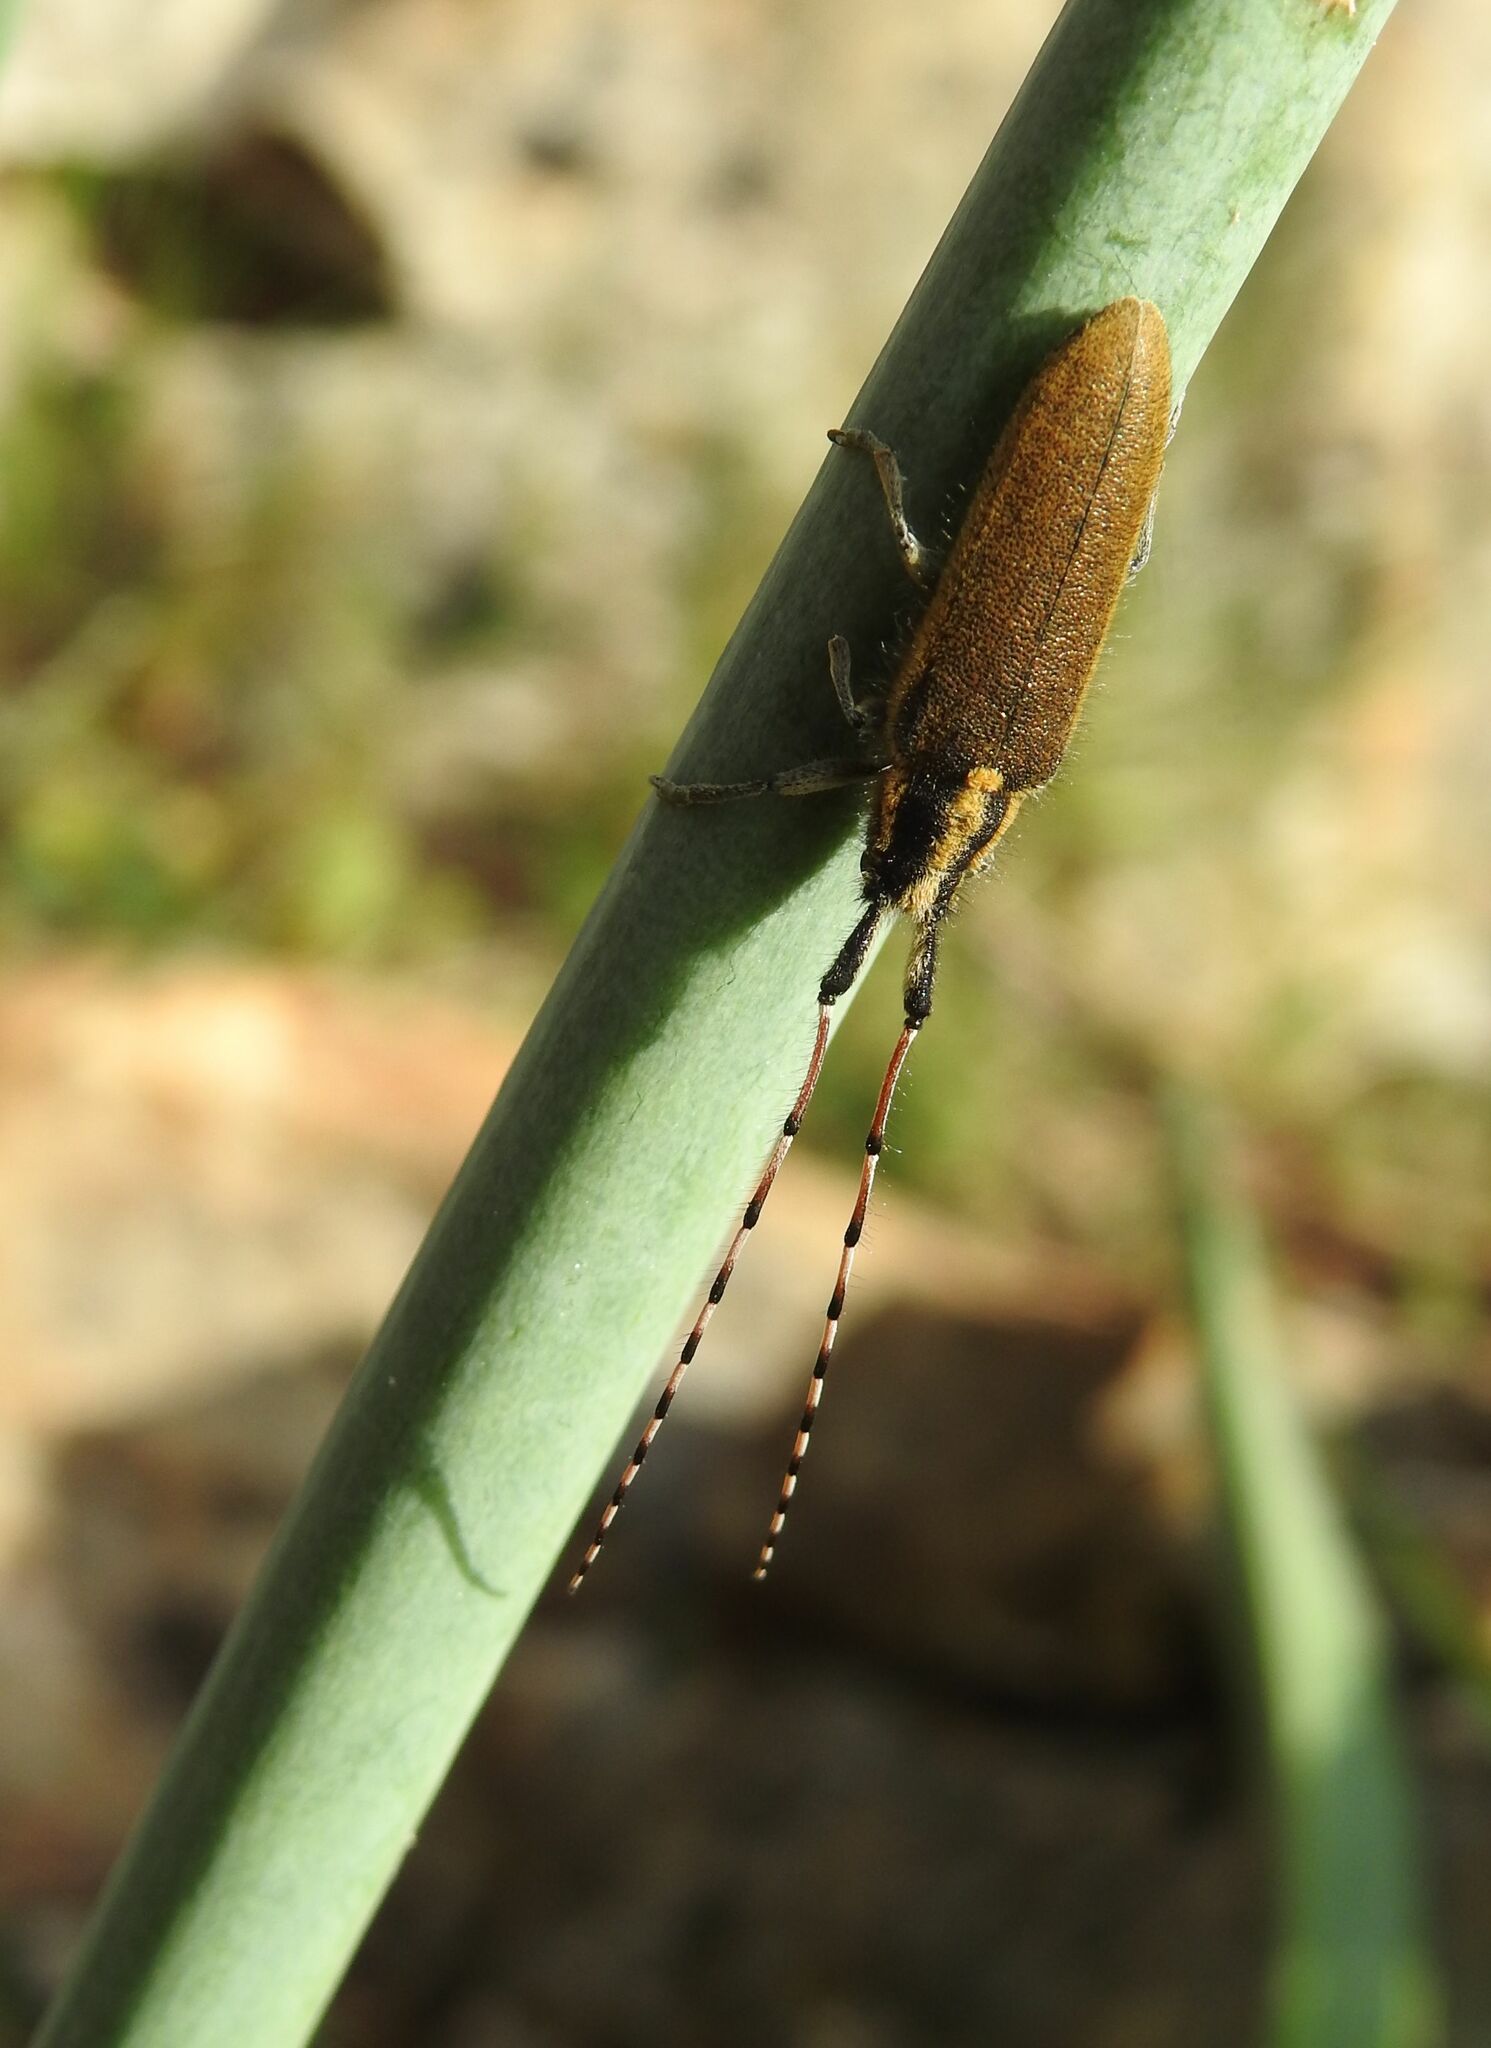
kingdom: Animalia
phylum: Arthropoda
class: Insecta
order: Coleoptera
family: Cerambycidae
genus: Agapanthia
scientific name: Agapanthia asphodeli
